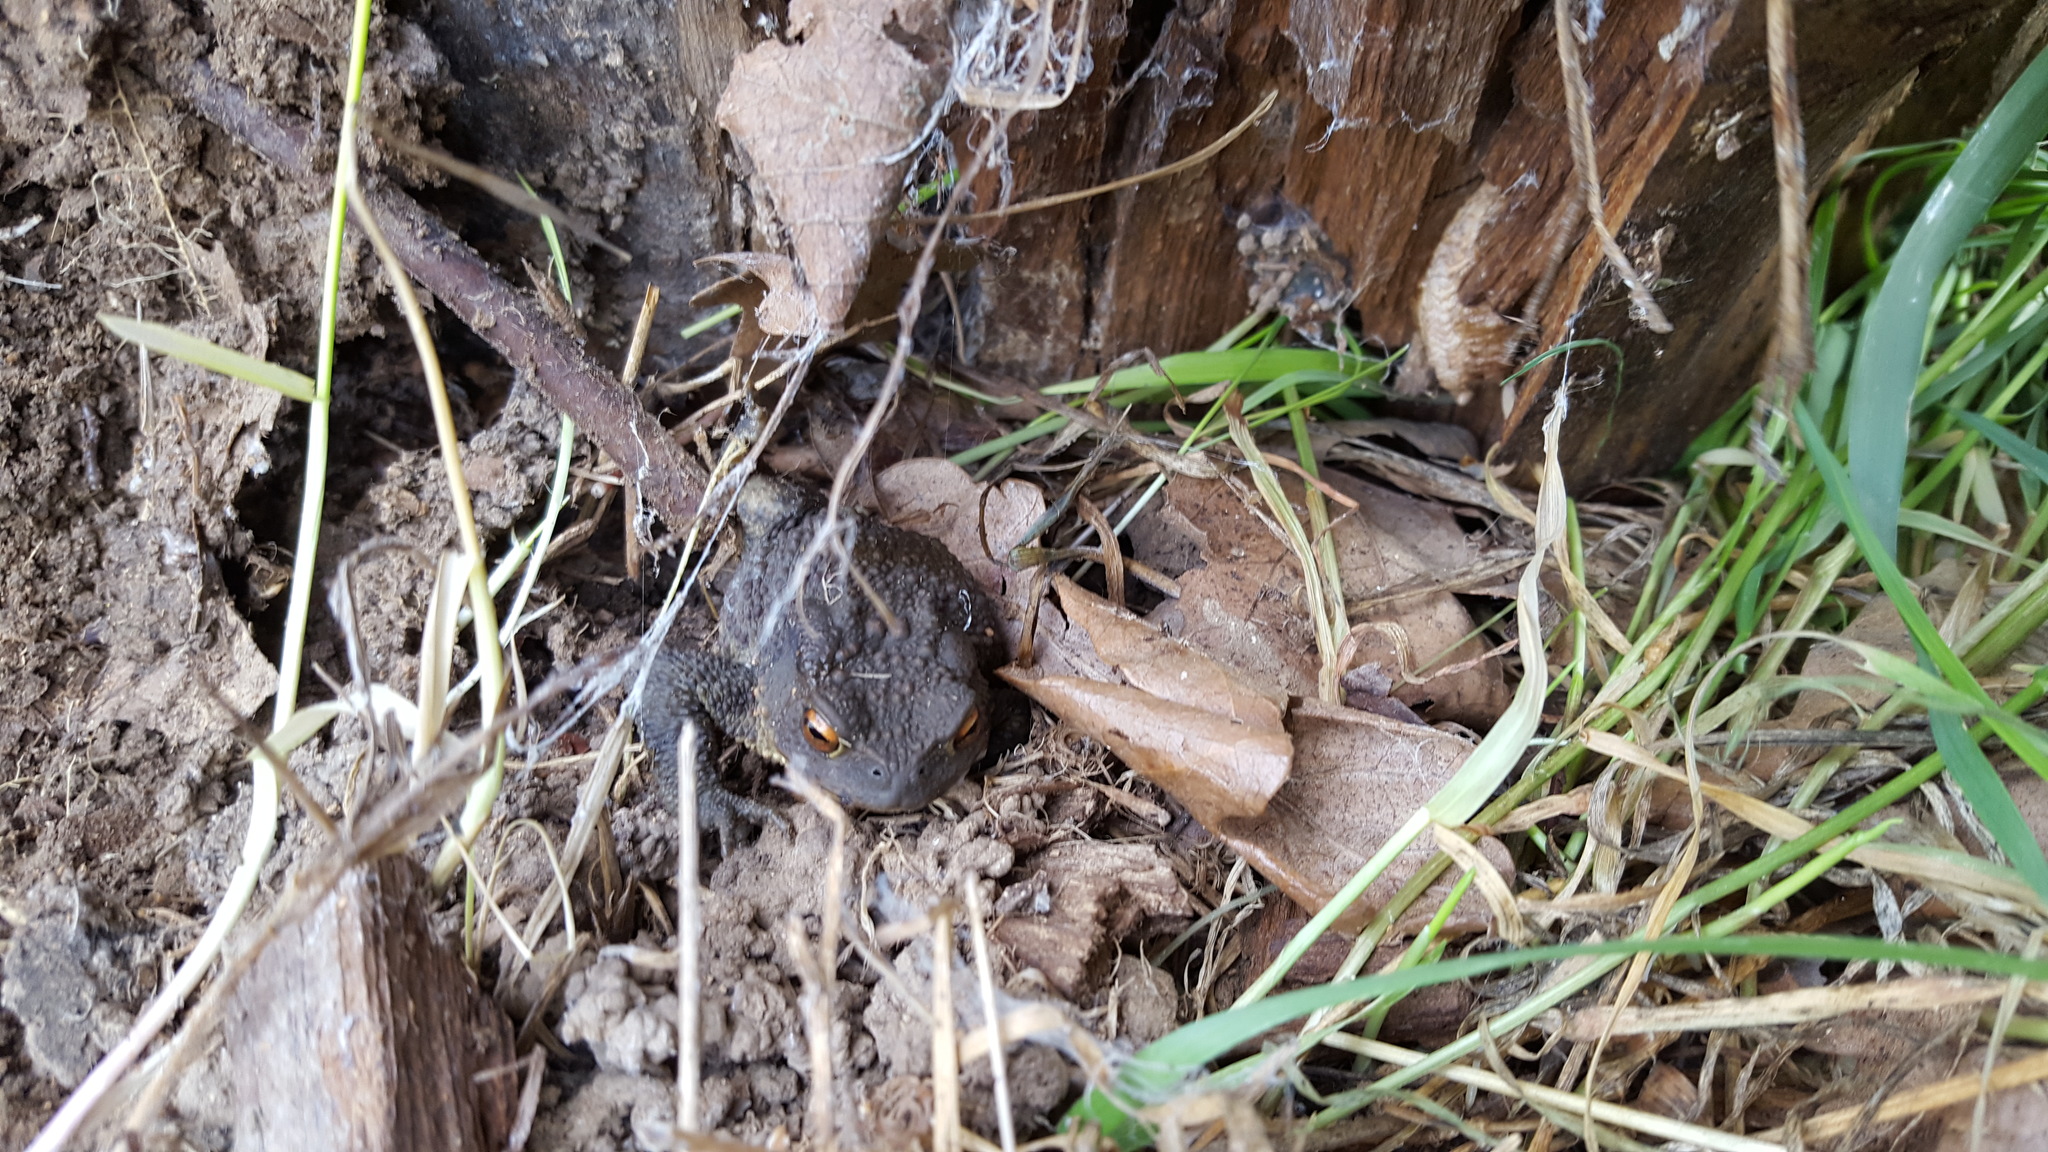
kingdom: Animalia
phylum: Chordata
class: Amphibia
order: Anura
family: Bufonidae
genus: Bufo
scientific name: Bufo bufo
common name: Common toad
